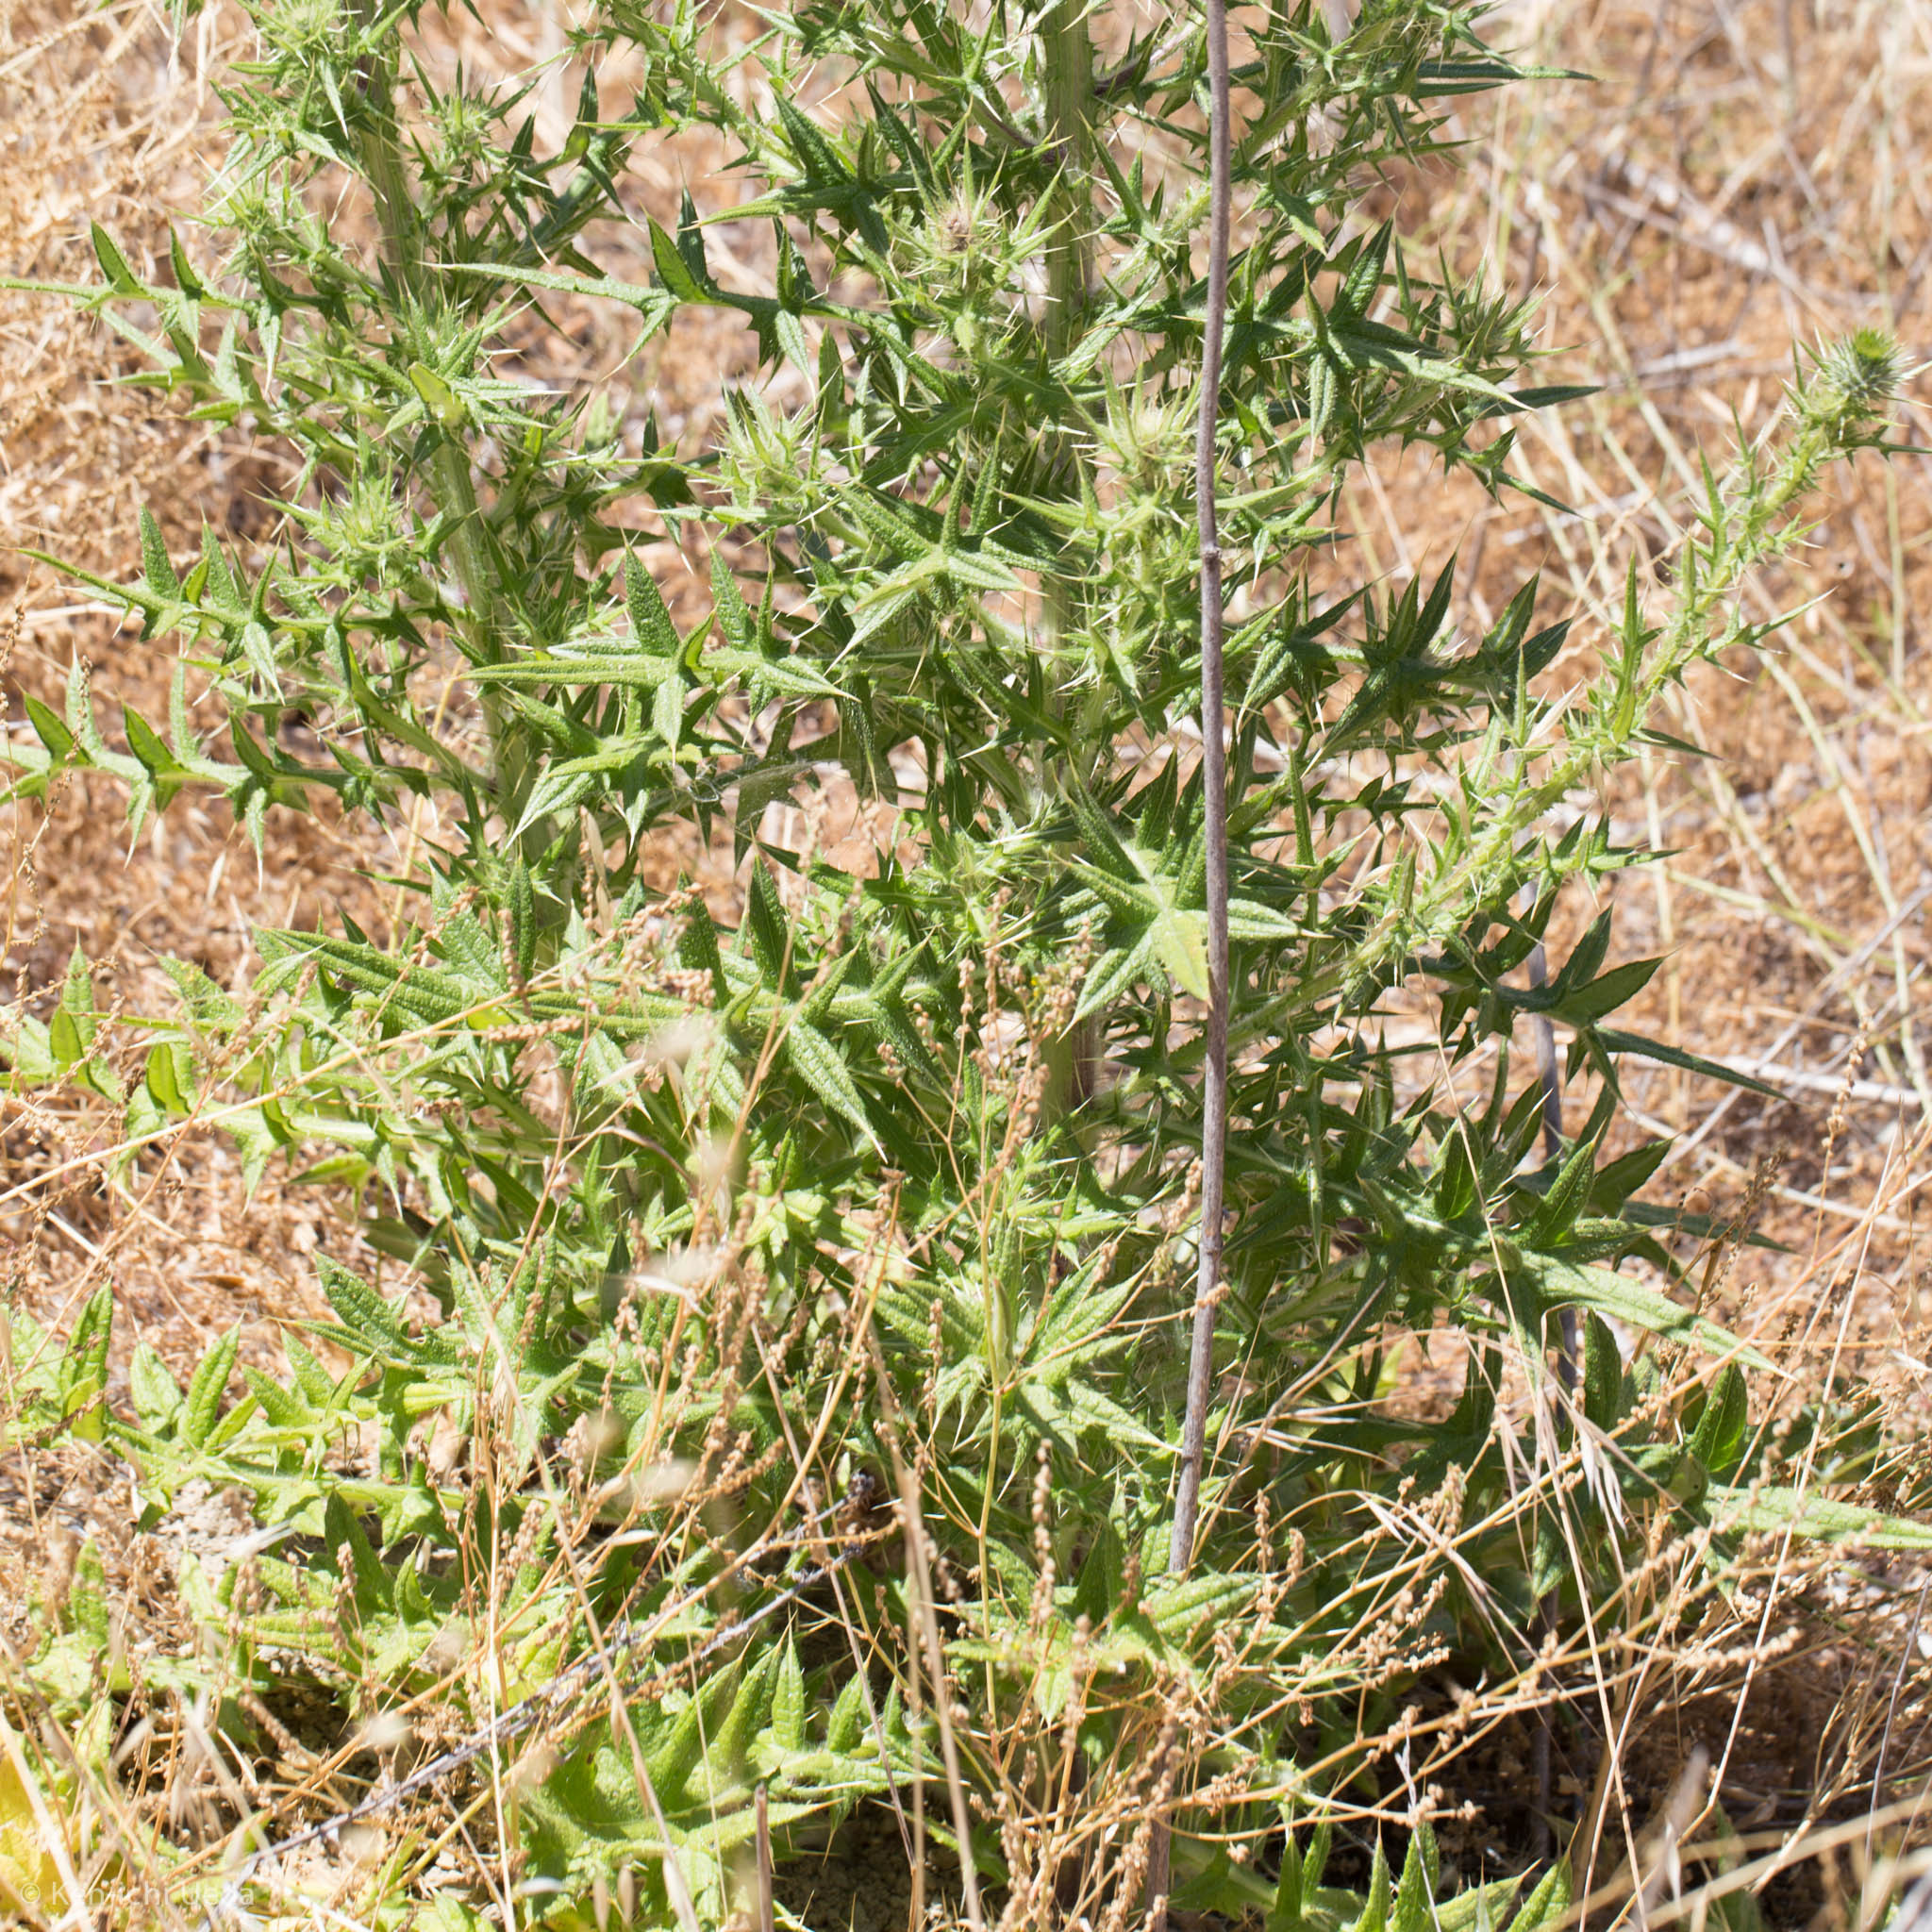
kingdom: Plantae
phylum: Tracheophyta
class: Magnoliopsida
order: Asterales
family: Asteraceae
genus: Cirsium
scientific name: Cirsium vulgare
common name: Bull thistle
